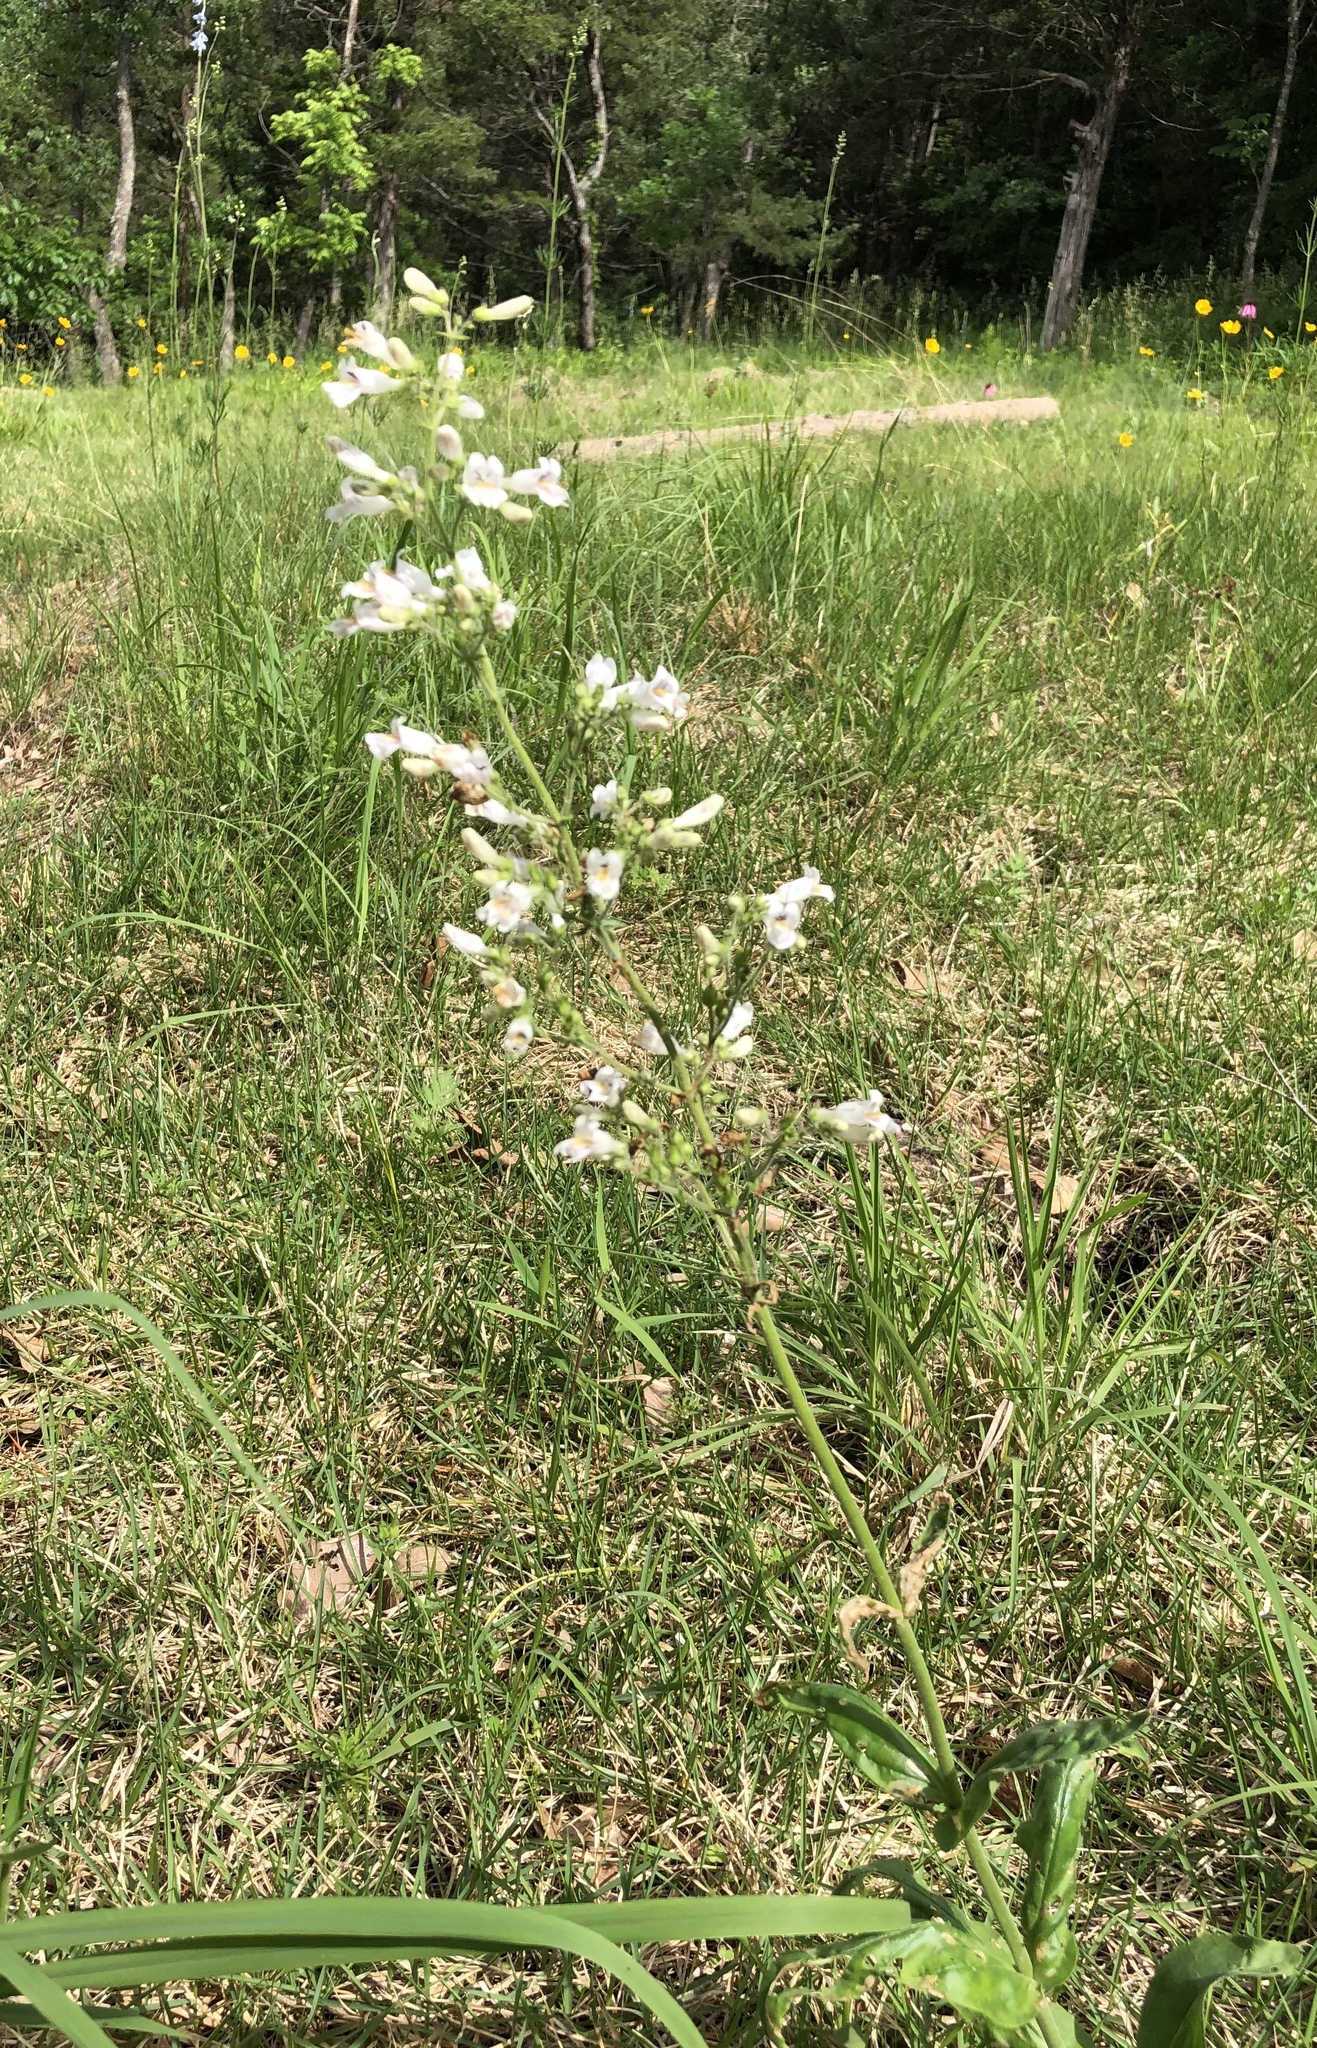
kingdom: Plantae
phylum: Tracheophyta
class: Magnoliopsida
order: Lamiales
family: Plantaginaceae
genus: Penstemon
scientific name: Penstemon digitalis
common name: Foxglove beardtongue
